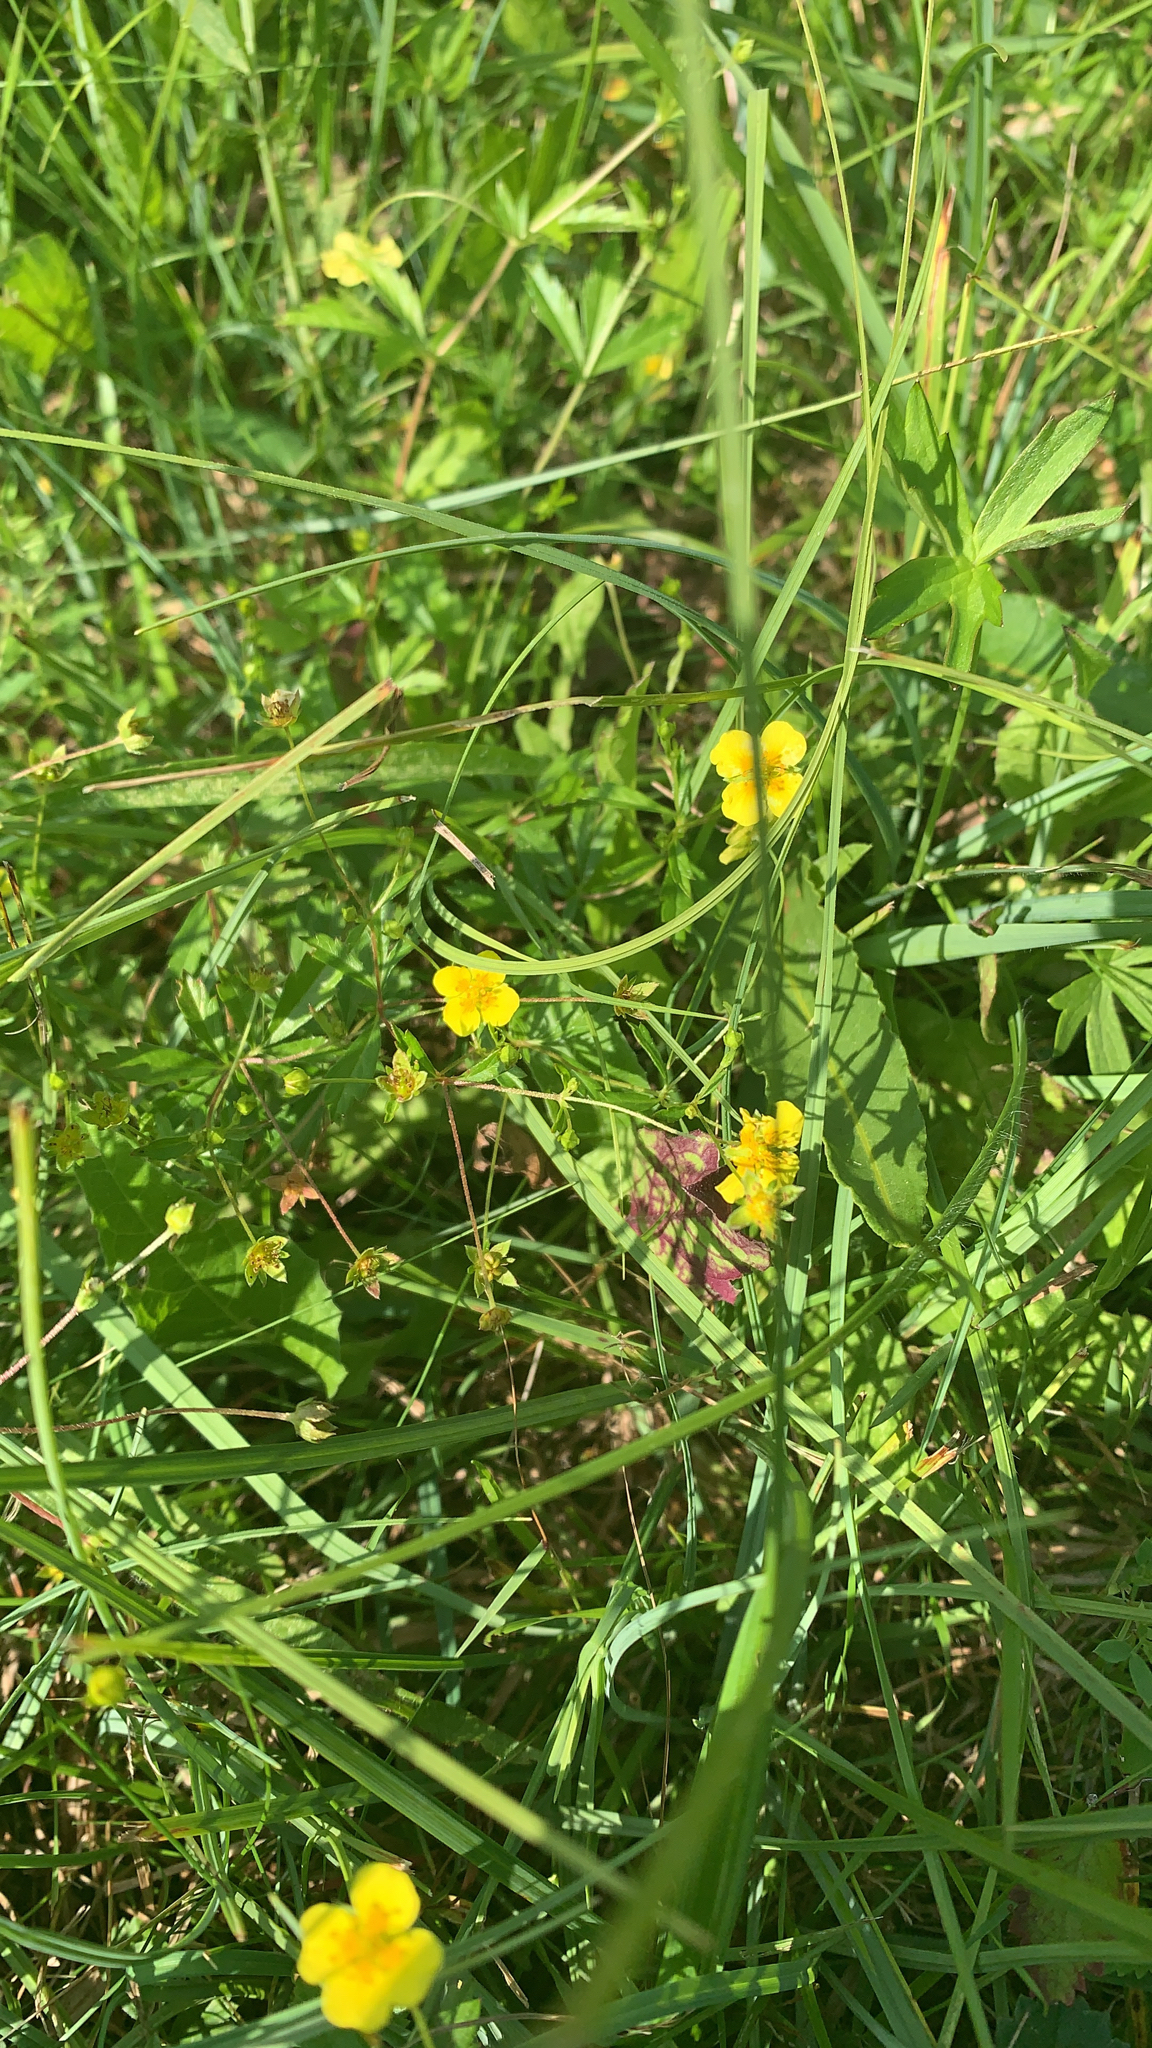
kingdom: Plantae
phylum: Tracheophyta
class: Magnoliopsida
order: Rosales
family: Rosaceae
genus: Potentilla
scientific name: Potentilla erecta
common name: Tormentil
